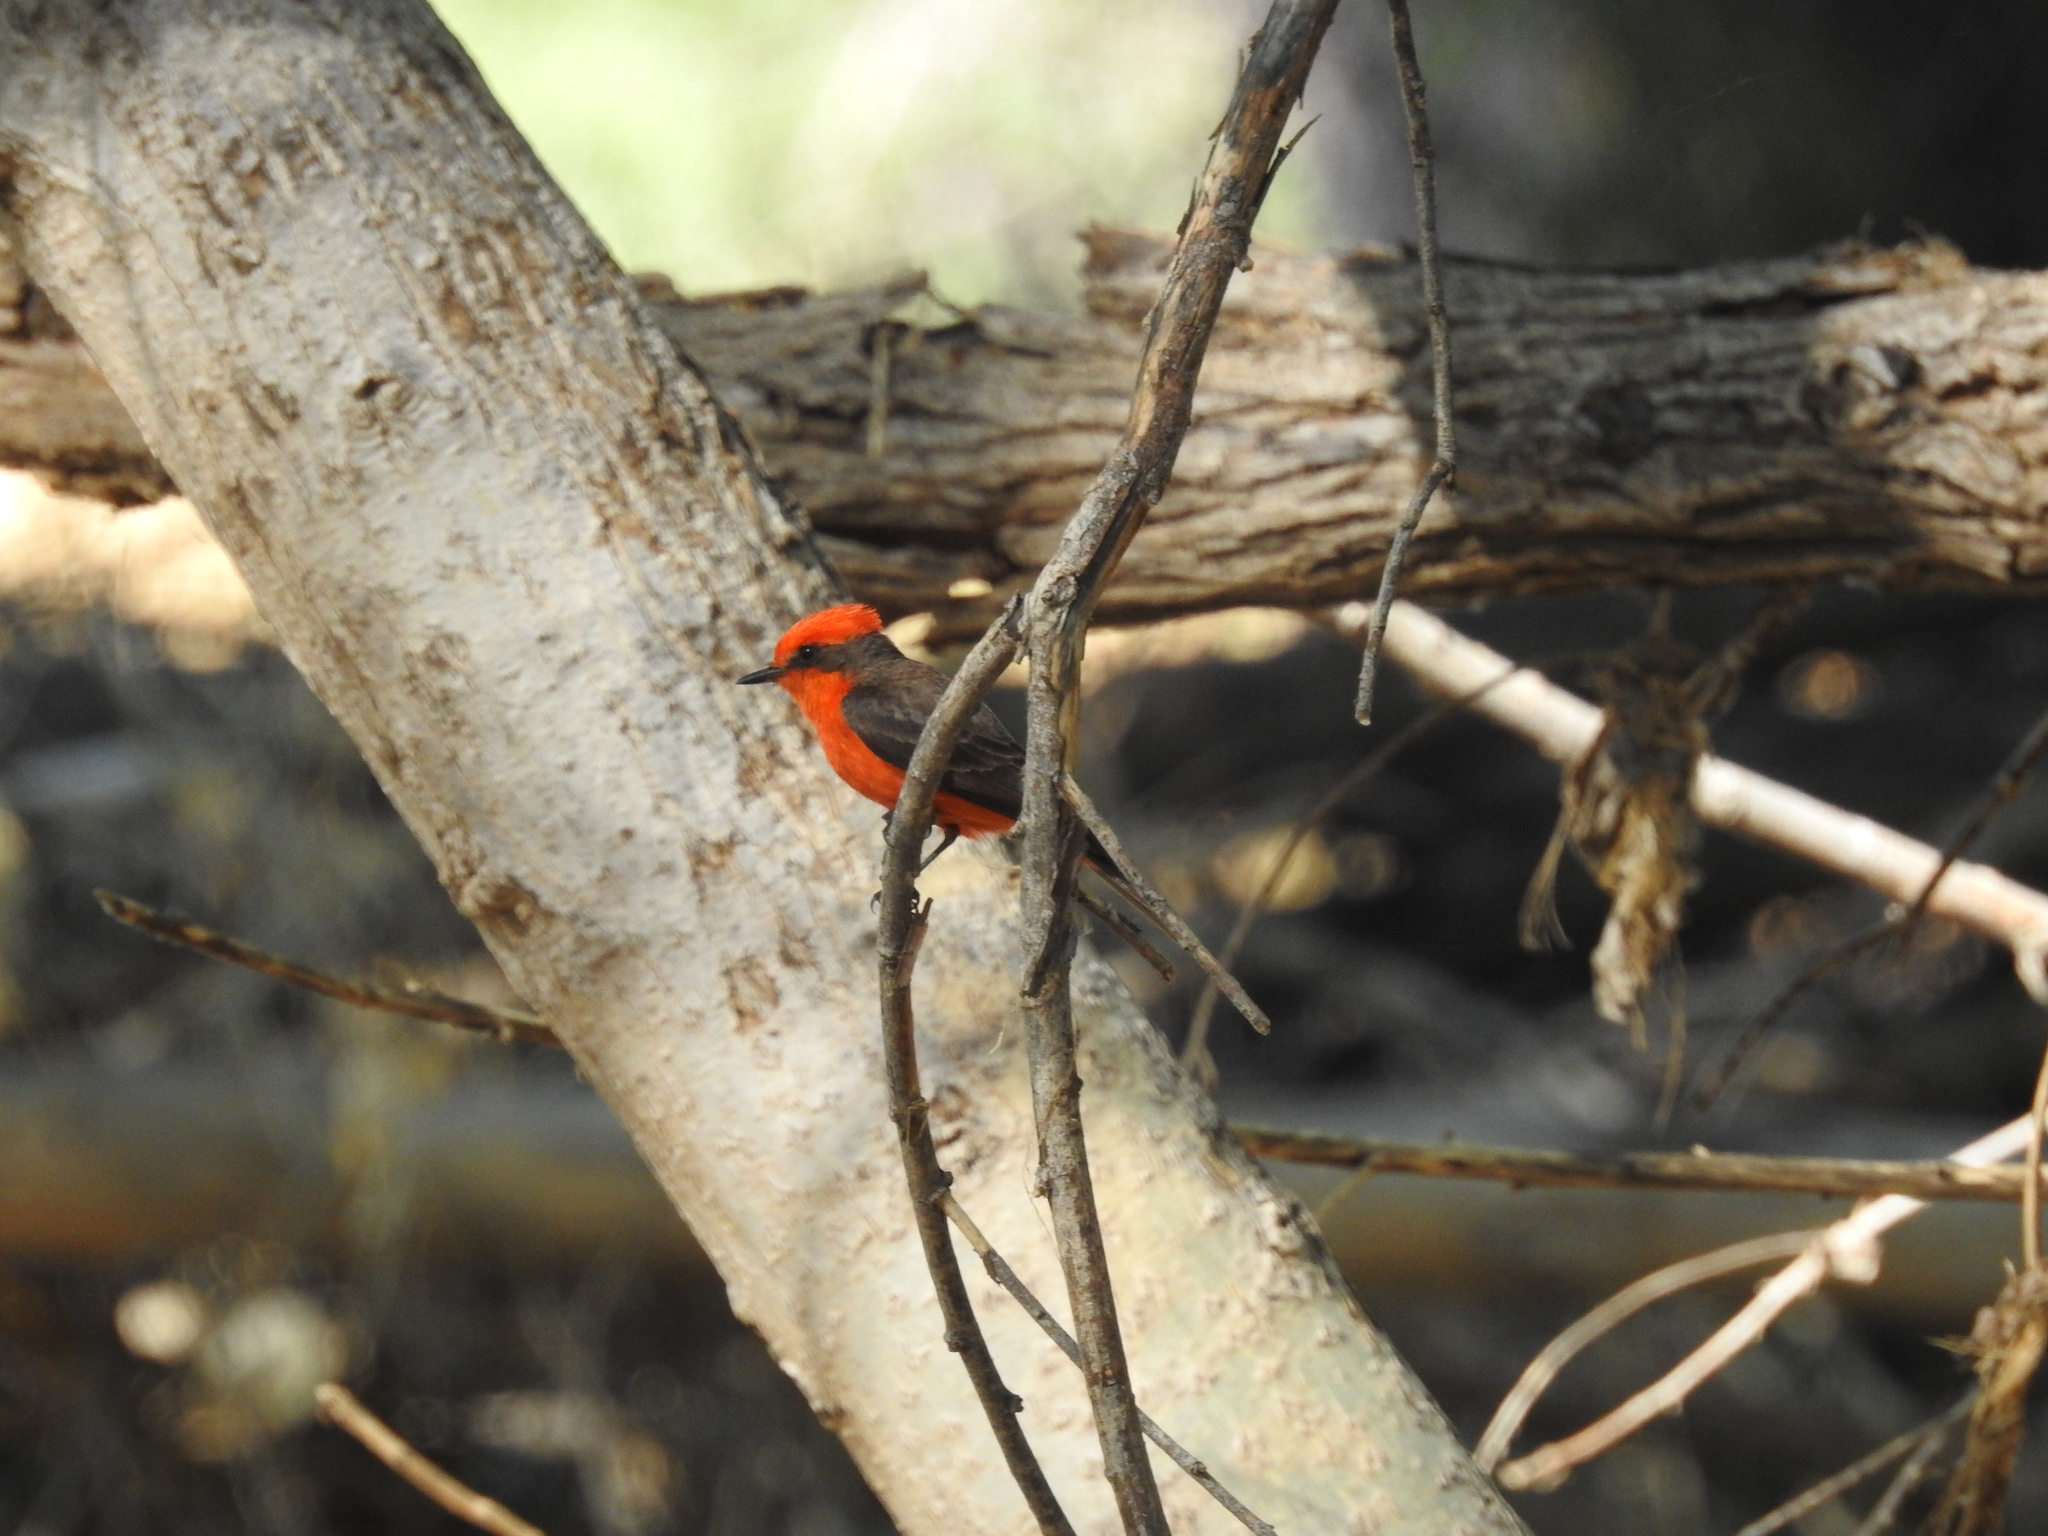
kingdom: Animalia
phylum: Chordata
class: Aves
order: Passeriformes
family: Tyrannidae
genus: Pyrocephalus
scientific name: Pyrocephalus rubinus
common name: Vermilion flycatcher
